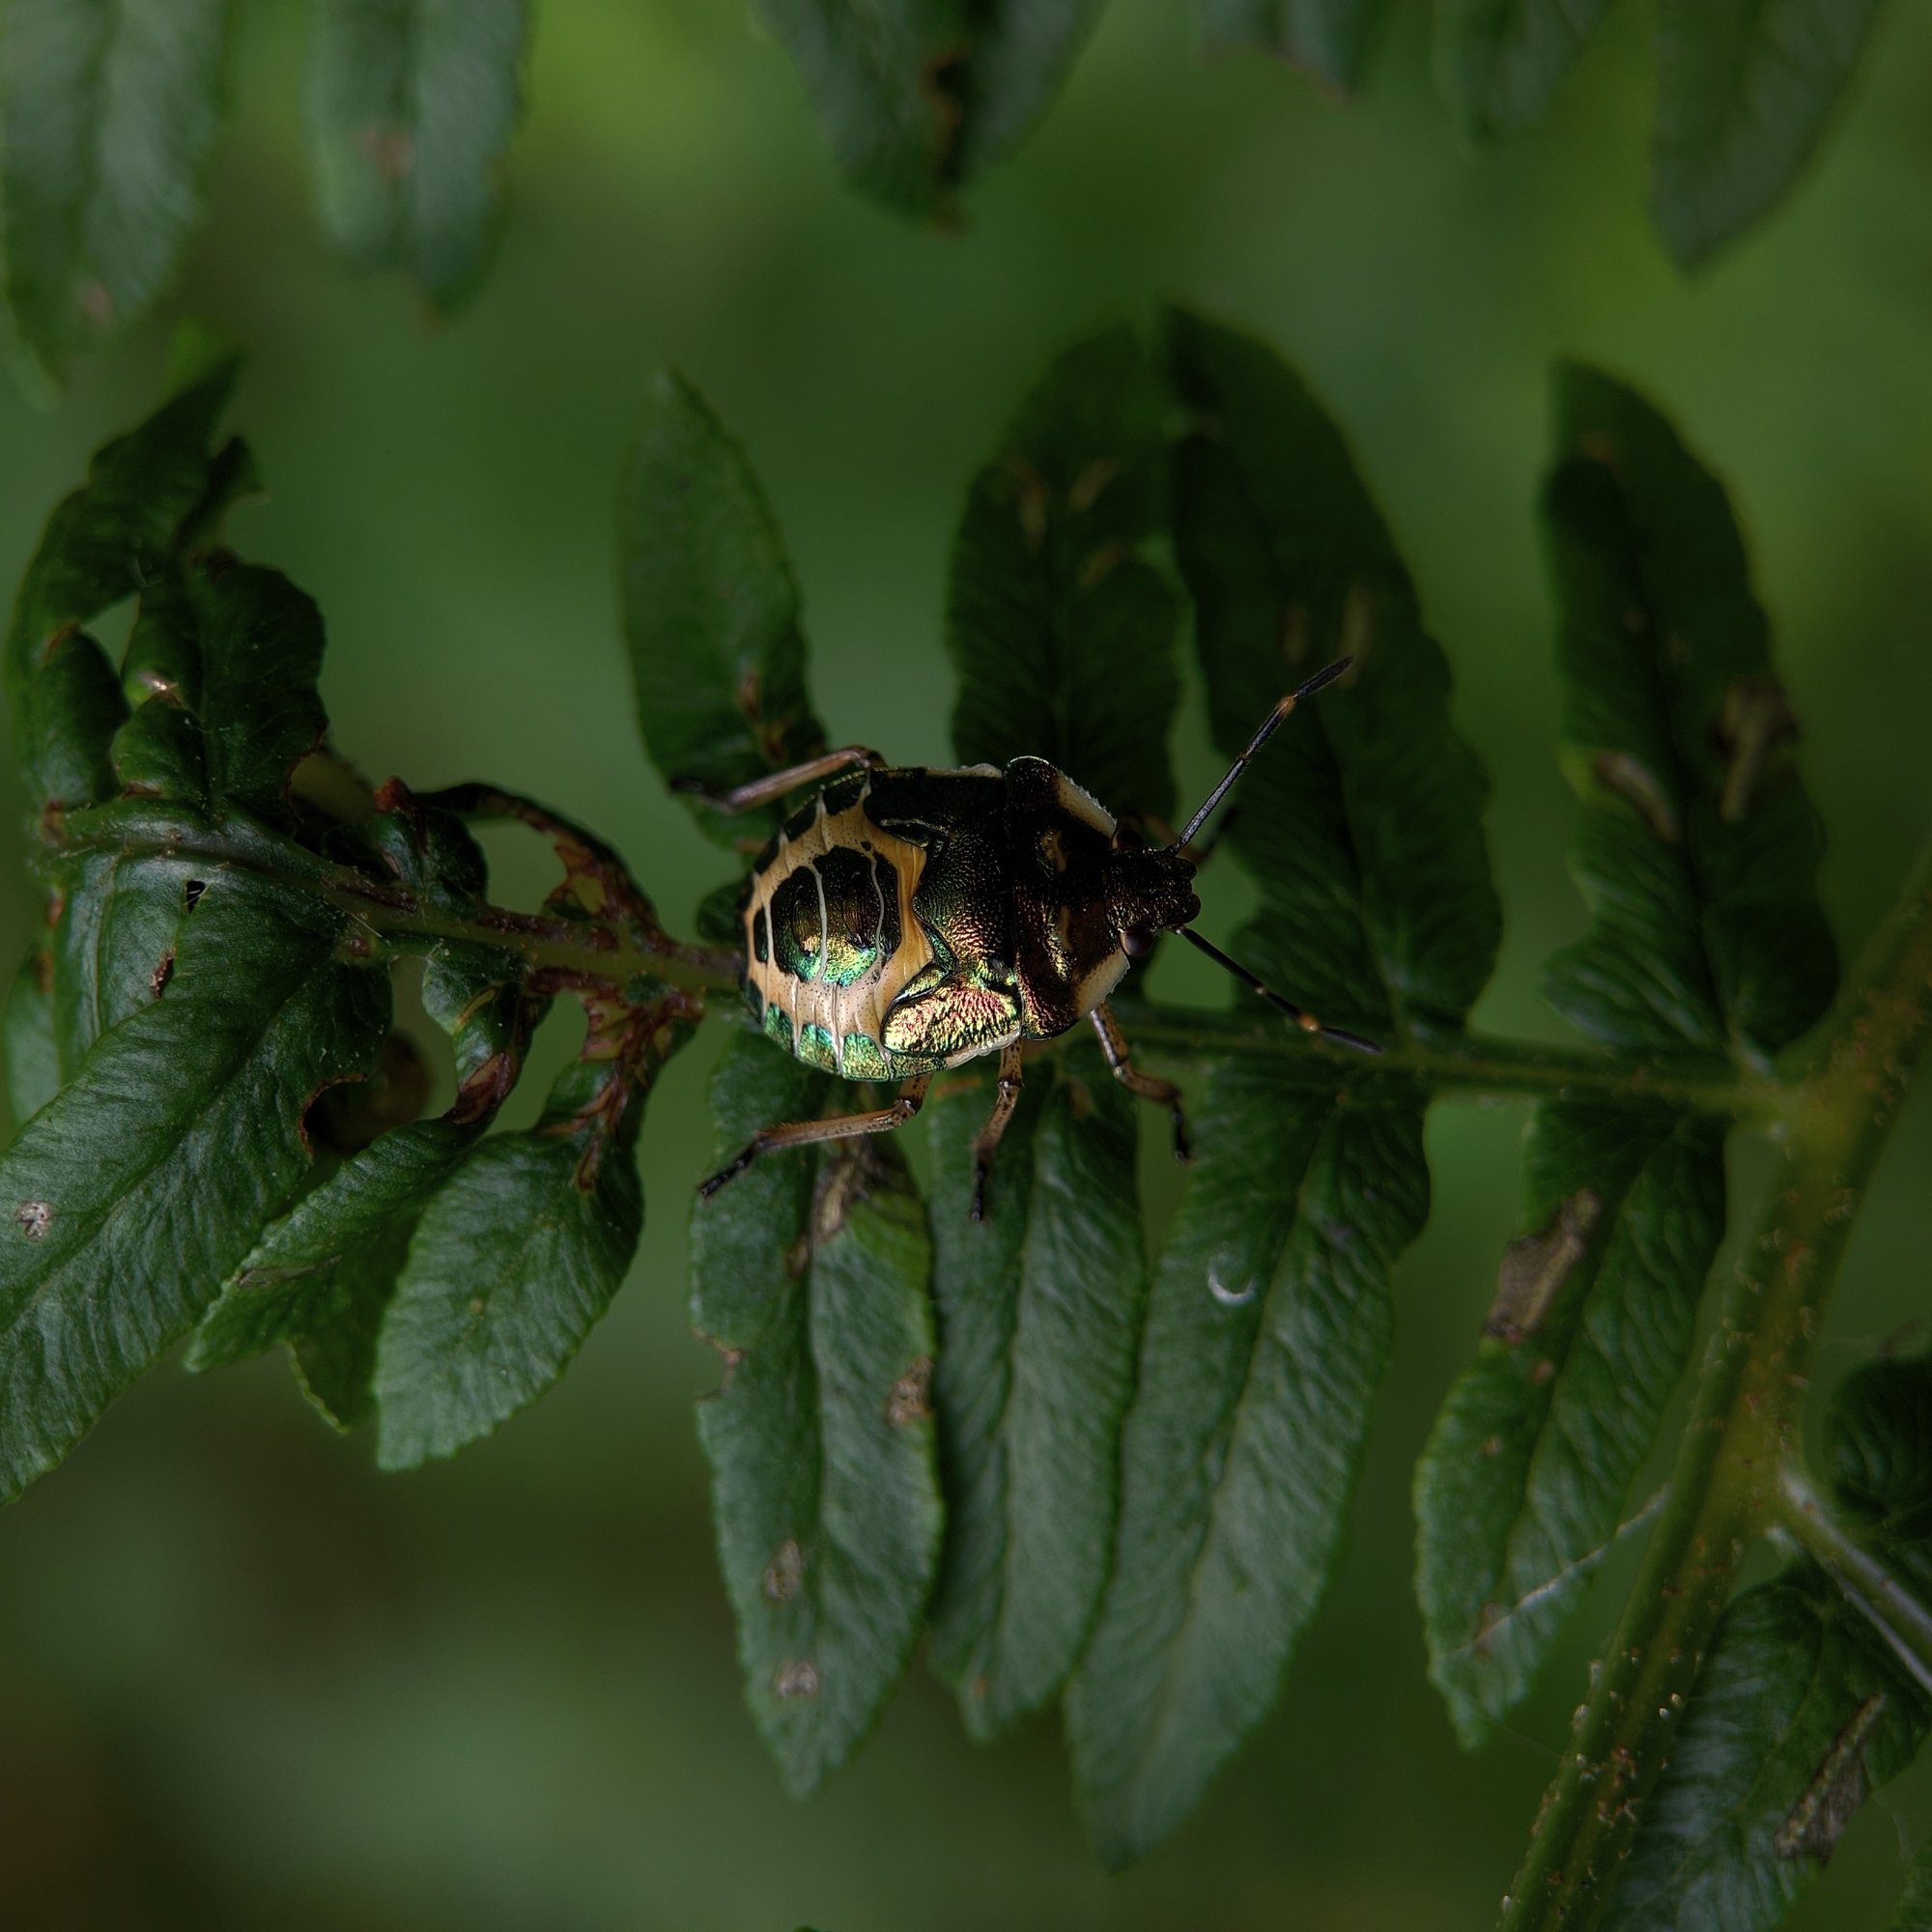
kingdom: Animalia
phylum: Arthropoda
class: Insecta
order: Hemiptera
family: Pentatomidae
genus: Troilus
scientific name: Troilus luridus
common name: Bronze shieldbug
